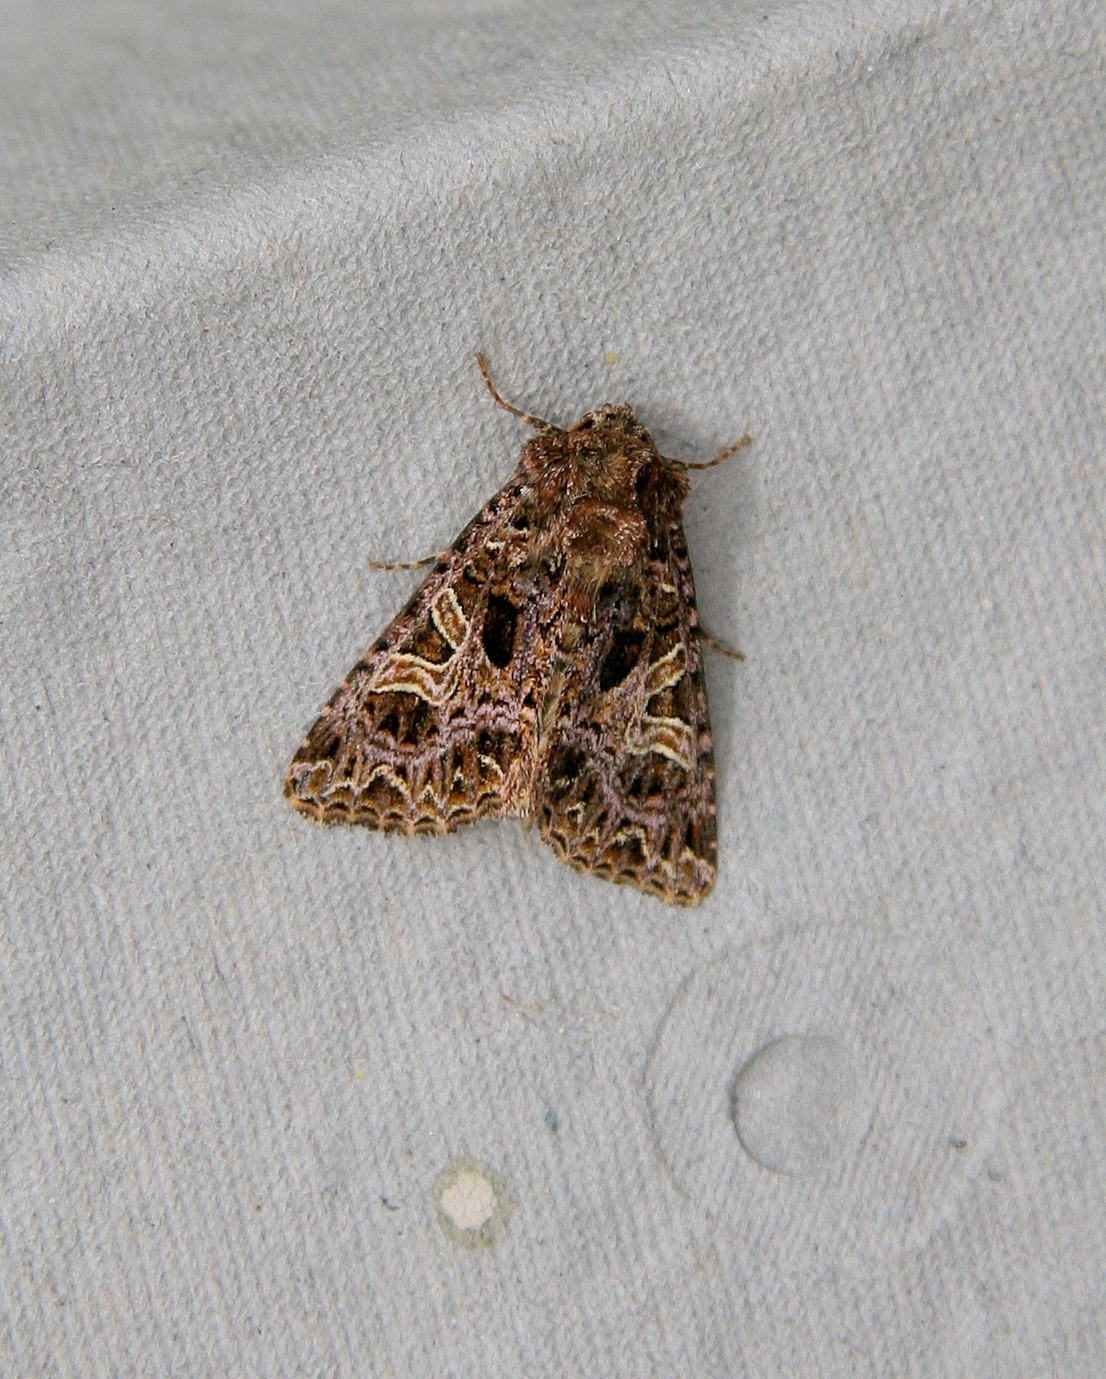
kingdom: Animalia
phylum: Arthropoda
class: Insecta
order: Lepidoptera
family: Noctuidae
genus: Sideridis
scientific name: Sideridis rivularis
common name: Campion
